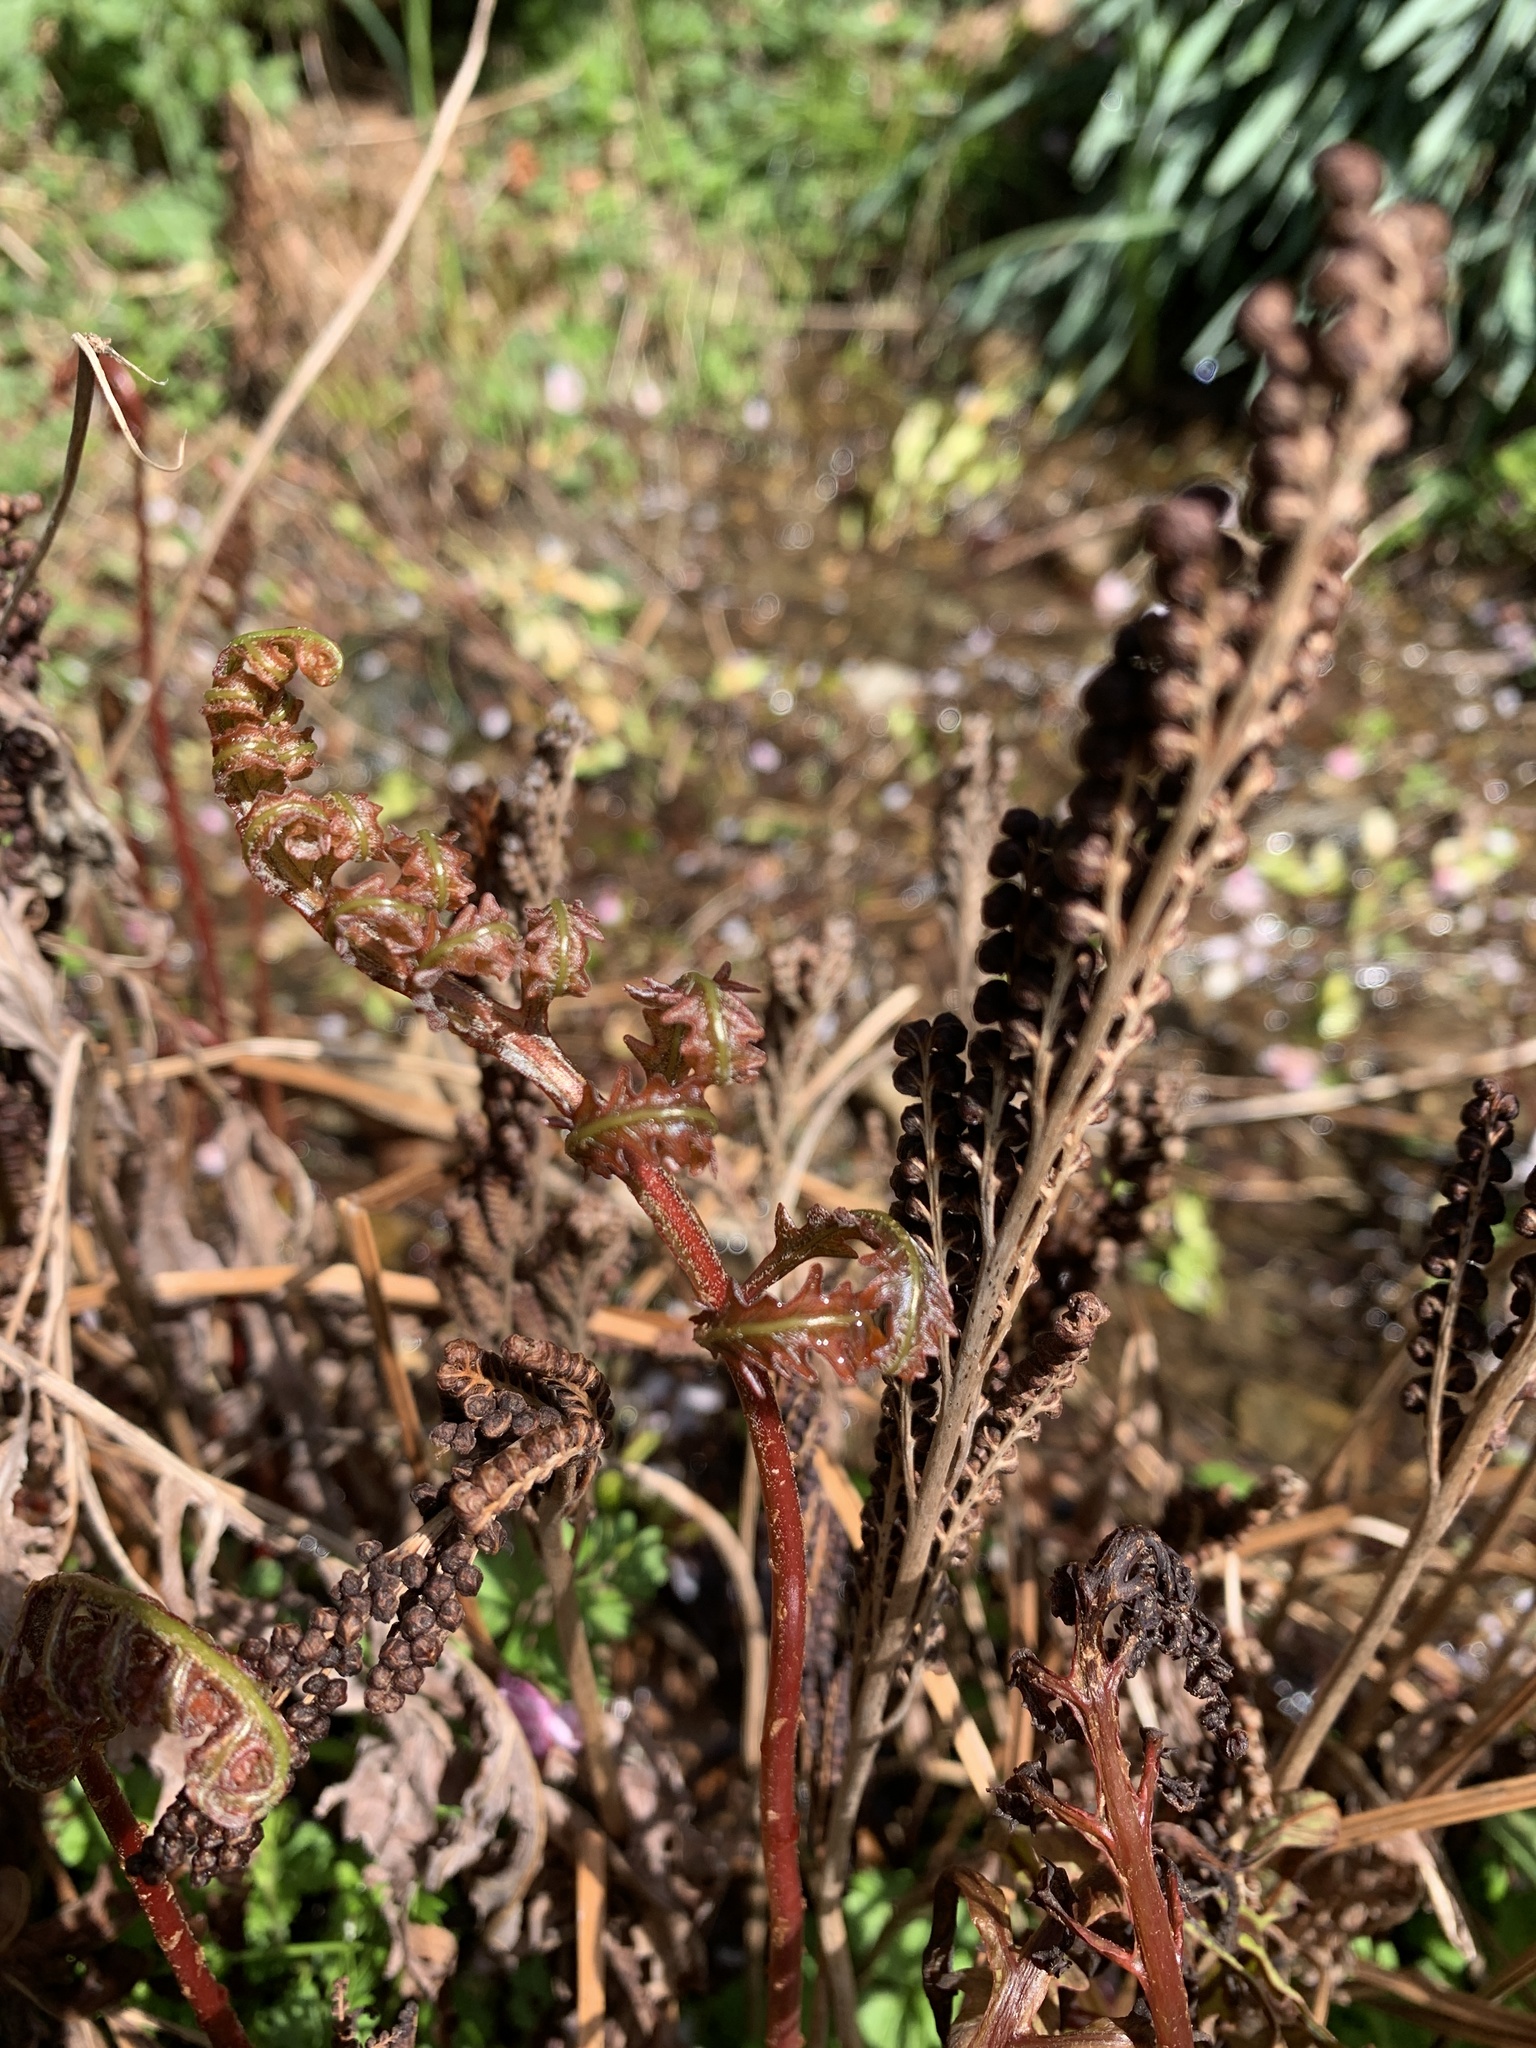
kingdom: Plantae
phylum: Tracheophyta
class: Polypodiopsida
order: Polypodiales
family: Onocleaceae
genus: Onoclea
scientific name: Onoclea sensibilis
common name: Sensitive fern
